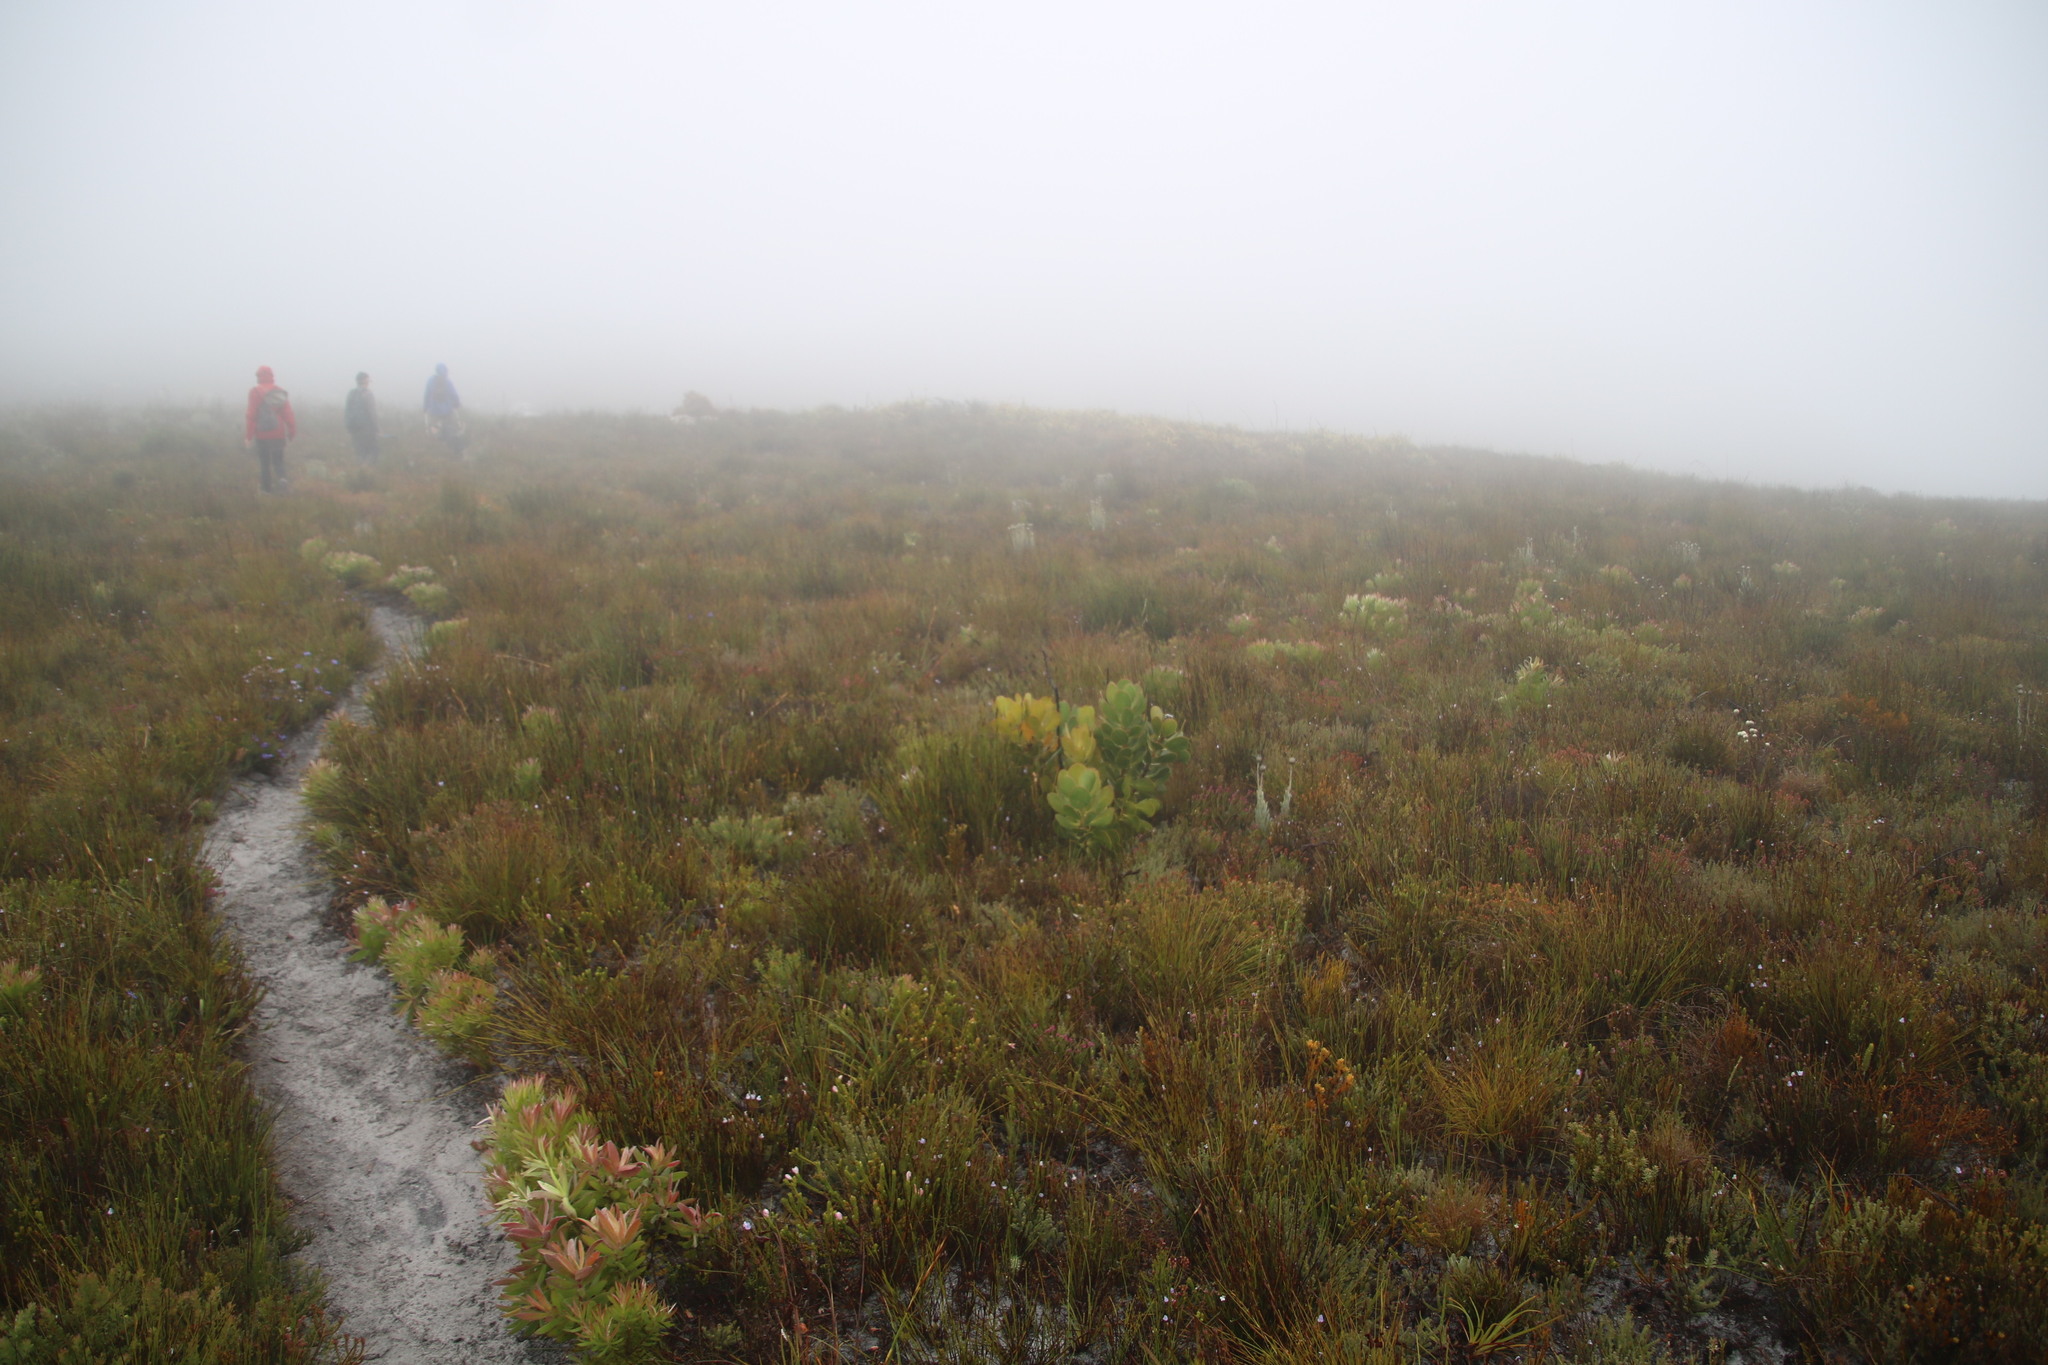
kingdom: Plantae
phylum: Tracheophyta
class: Magnoliopsida
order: Proteales
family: Proteaceae
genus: Protea
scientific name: Protea speciosa
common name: Brown-beard sugarbush
